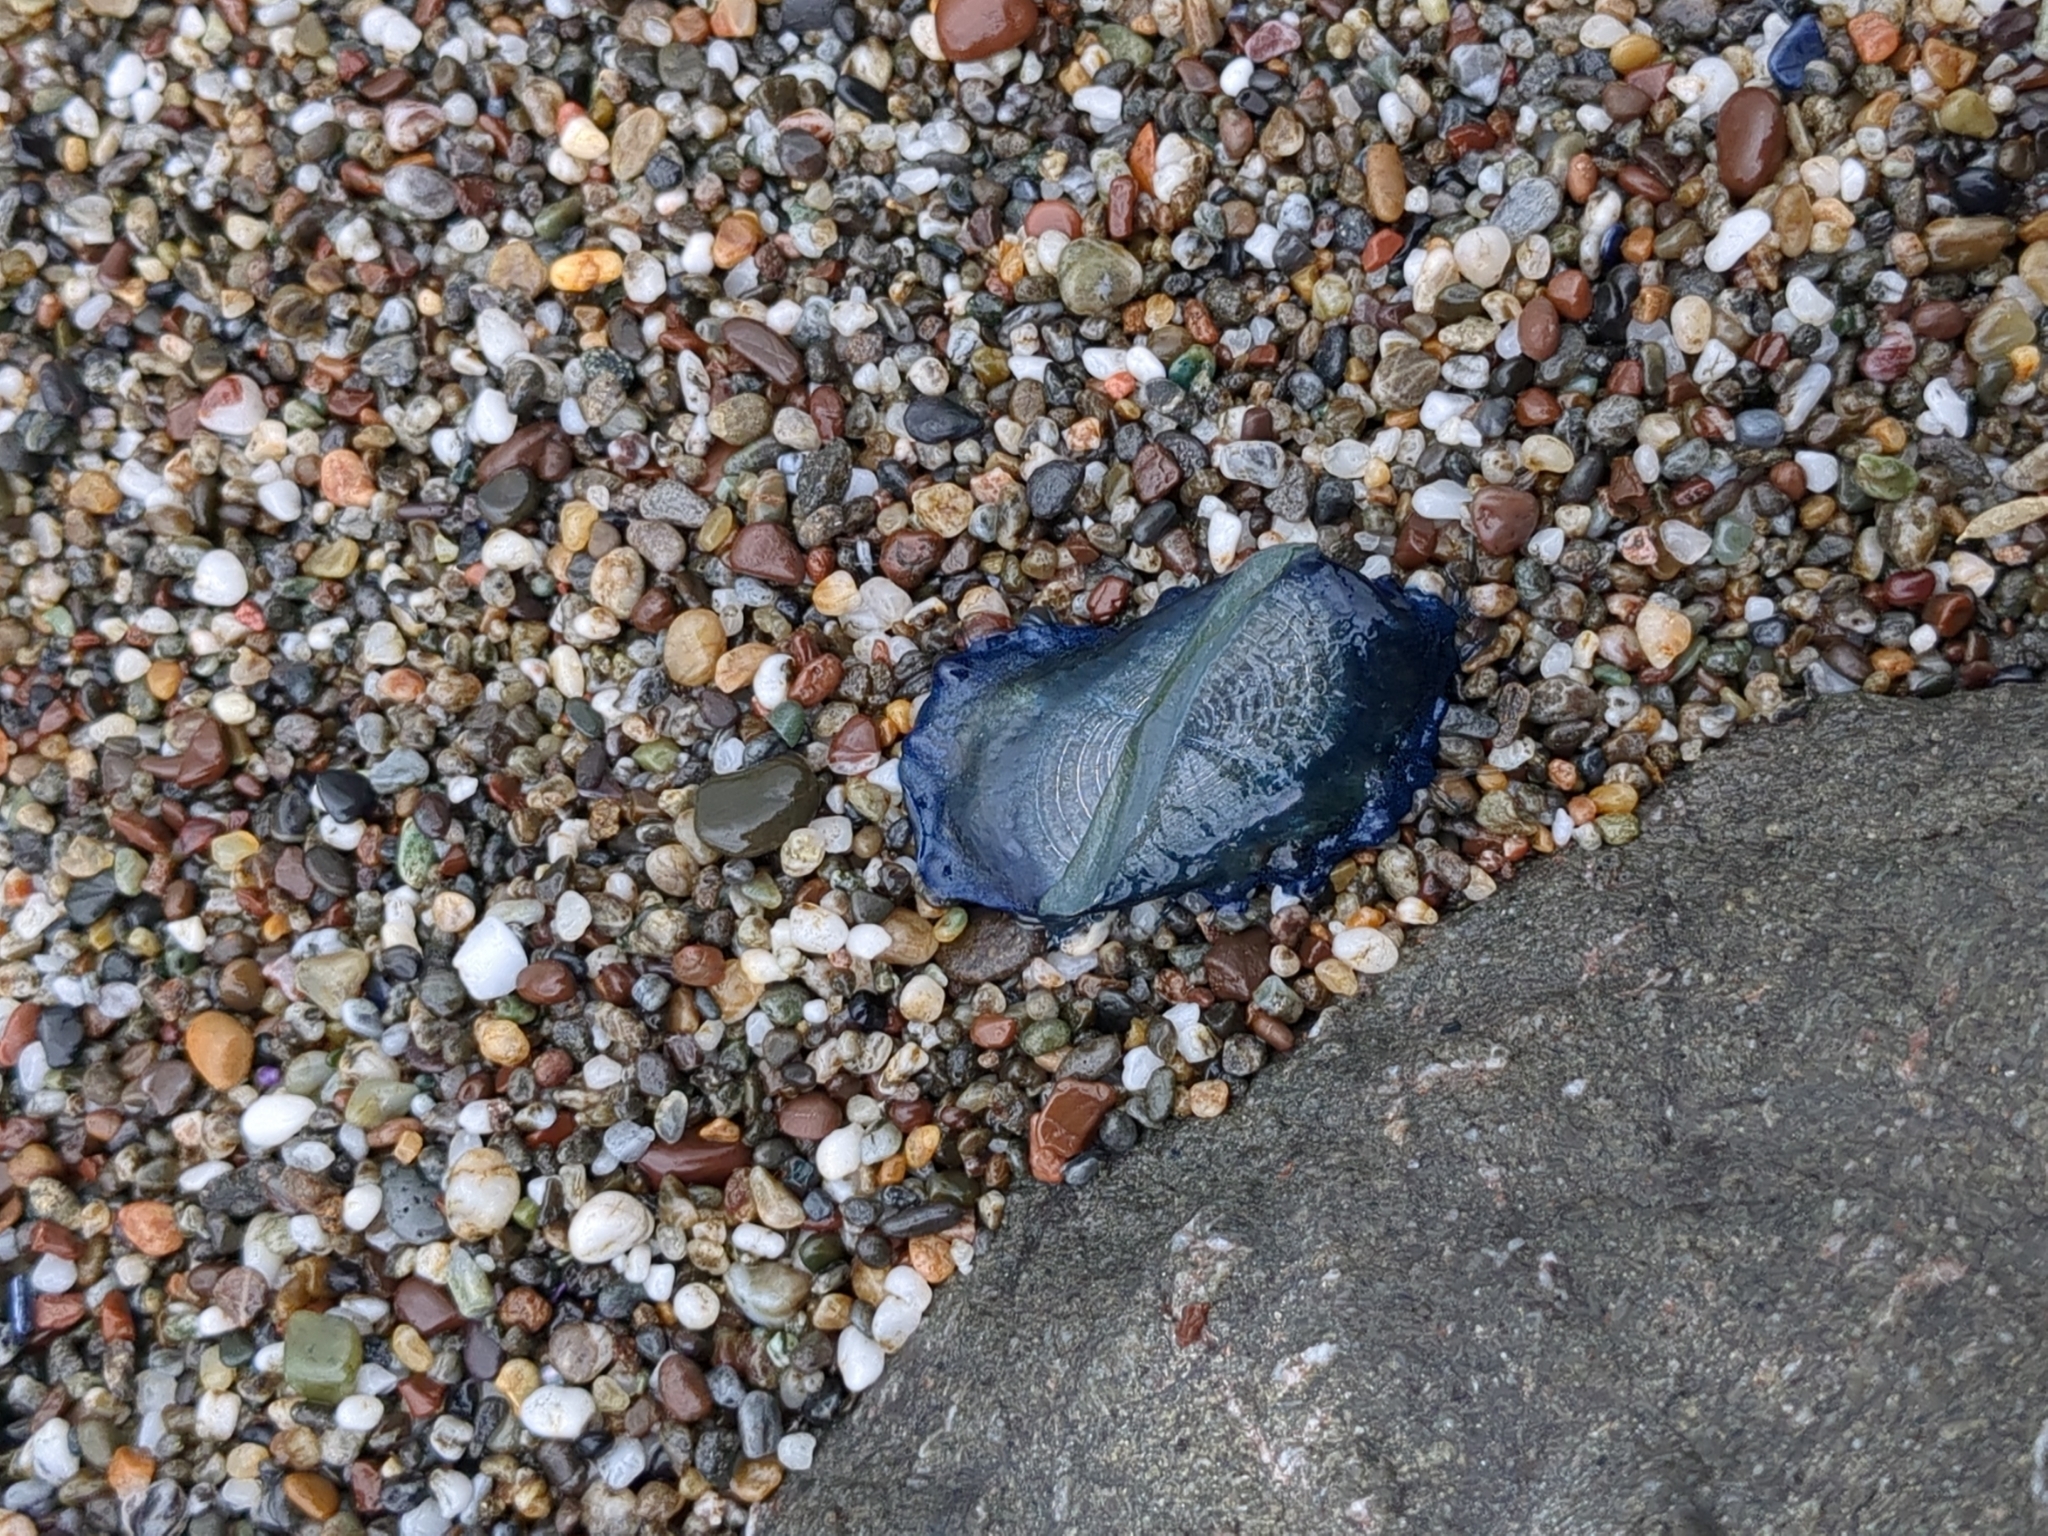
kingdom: Animalia
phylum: Cnidaria
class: Hydrozoa
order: Anthoathecata
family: Porpitidae
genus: Velella
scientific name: Velella velella
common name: By-the-wind-sailor
